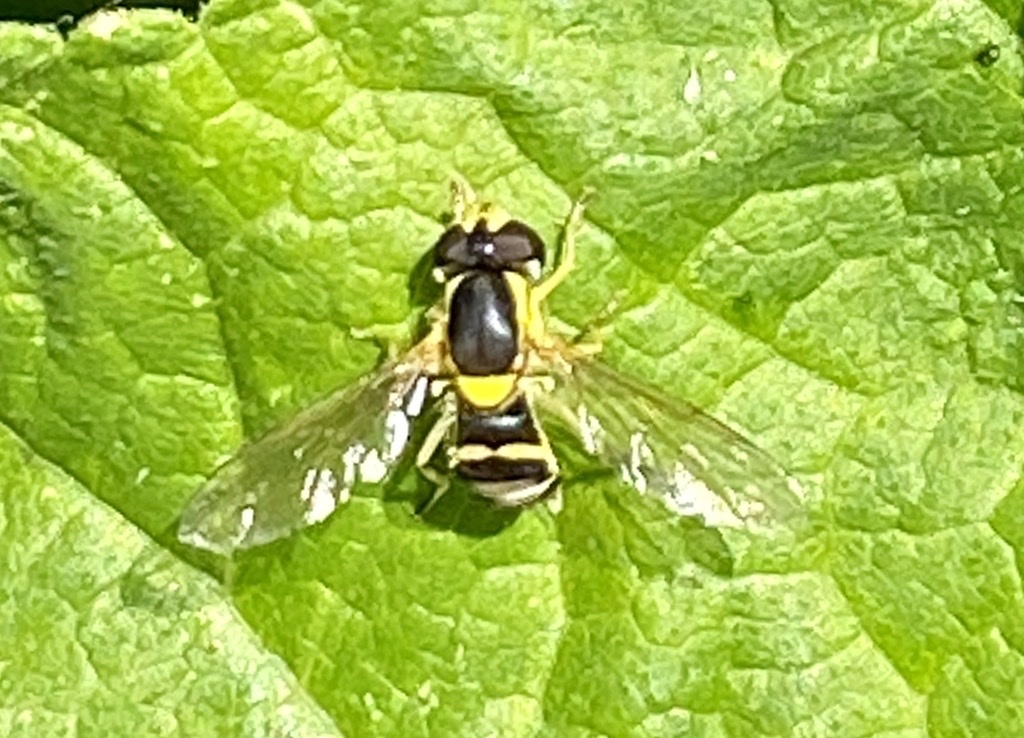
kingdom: Animalia
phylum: Arthropoda
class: Insecta
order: Diptera
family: Syrphidae
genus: Sphaerophoria
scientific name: Sphaerophoria
